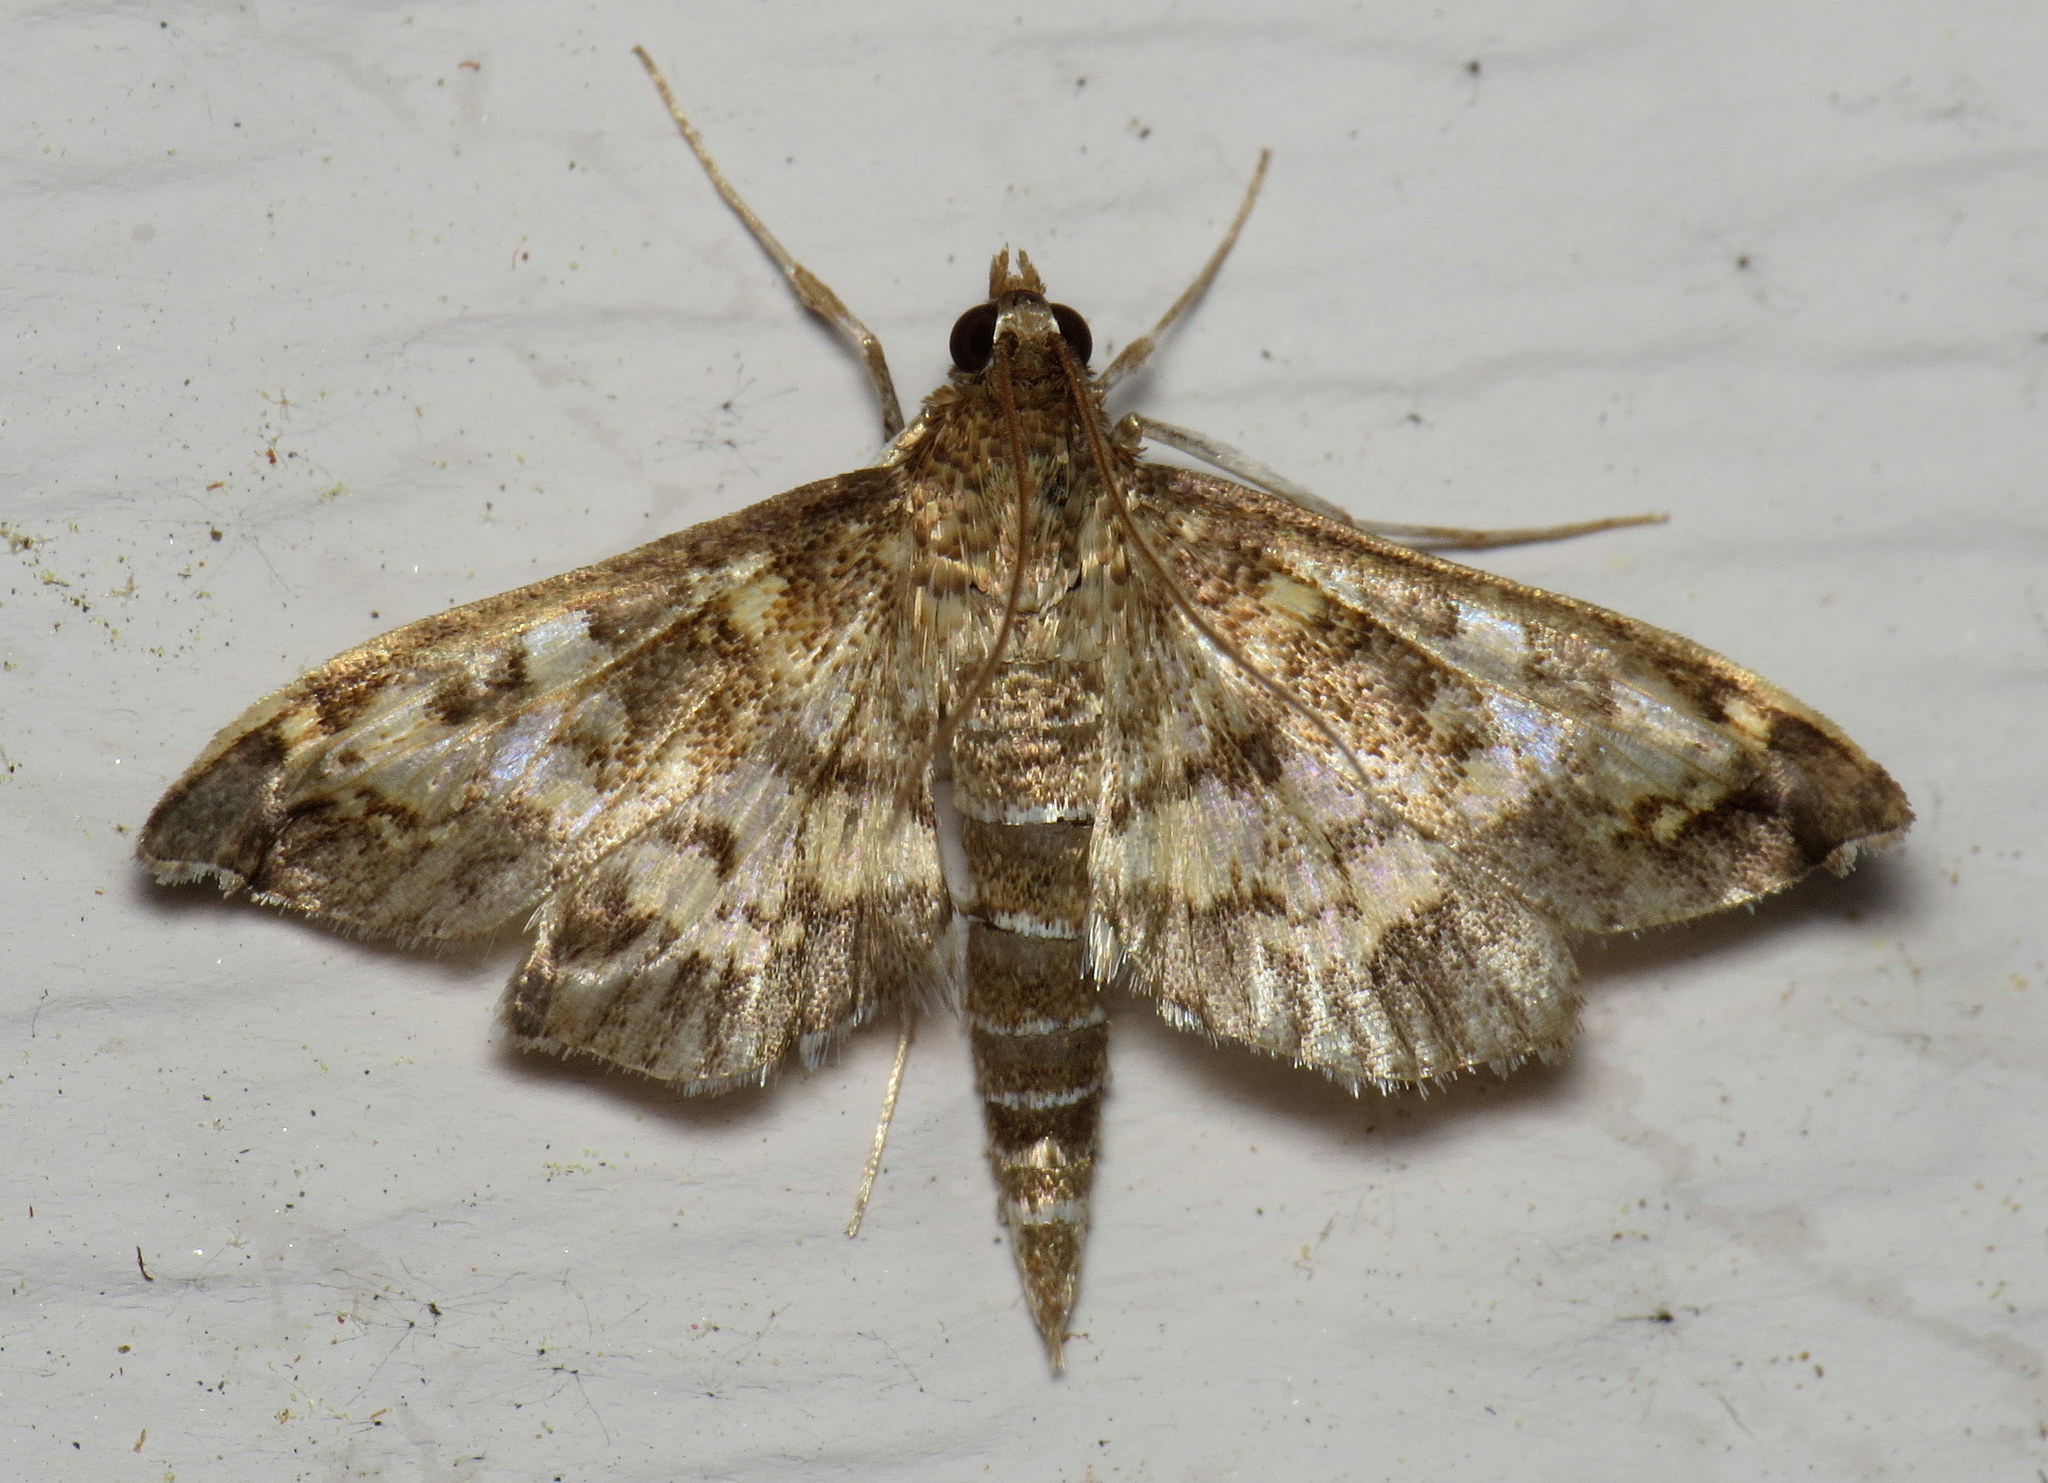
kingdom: Animalia
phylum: Arthropoda
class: Insecta
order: Lepidoptera
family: Crambidae
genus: Epipagis
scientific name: Epipagis adipaloides
